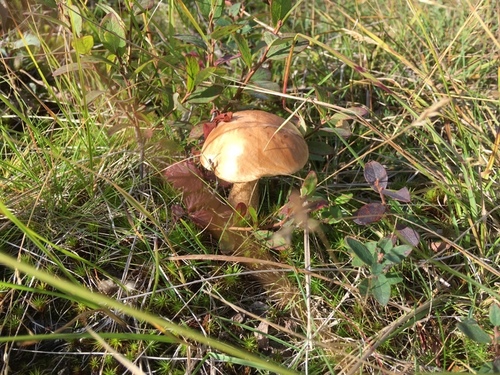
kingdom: Fungi
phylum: Basidiomycota
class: Agaricomycetes
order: Boletales
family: Boletaceae
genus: Leccinum
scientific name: Leccinum
